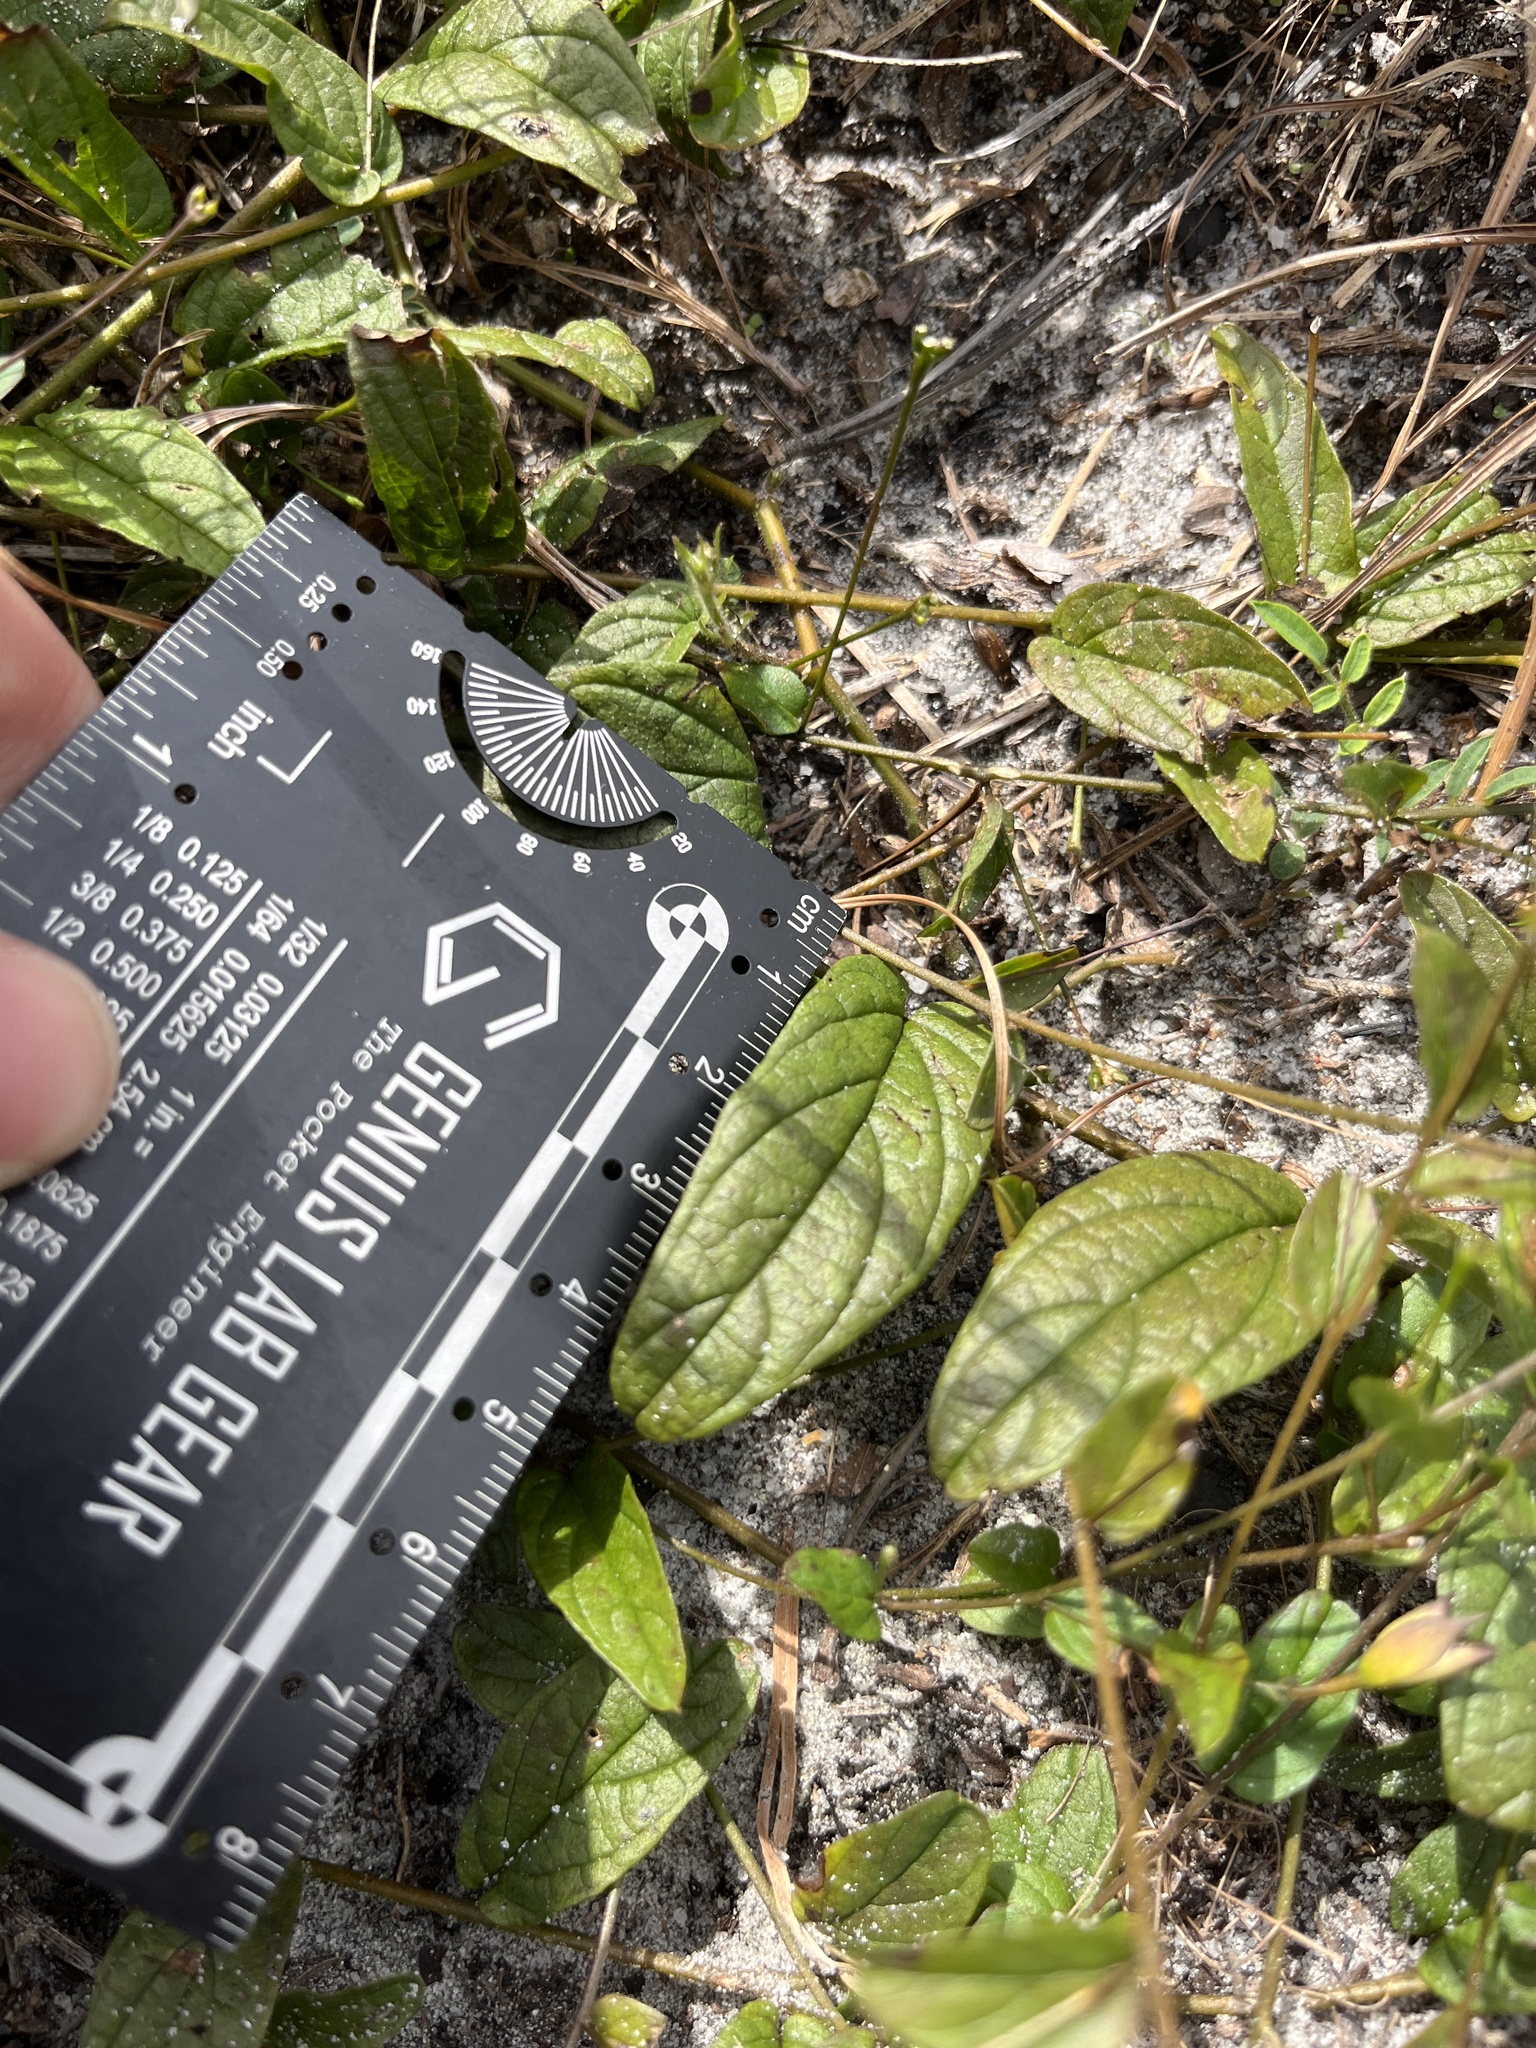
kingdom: Plantae
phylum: Tracheophyta
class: Magnoliopsida
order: Solanales
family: Convolvulaceae
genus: Stylisma
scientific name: Stylisma humistrata
